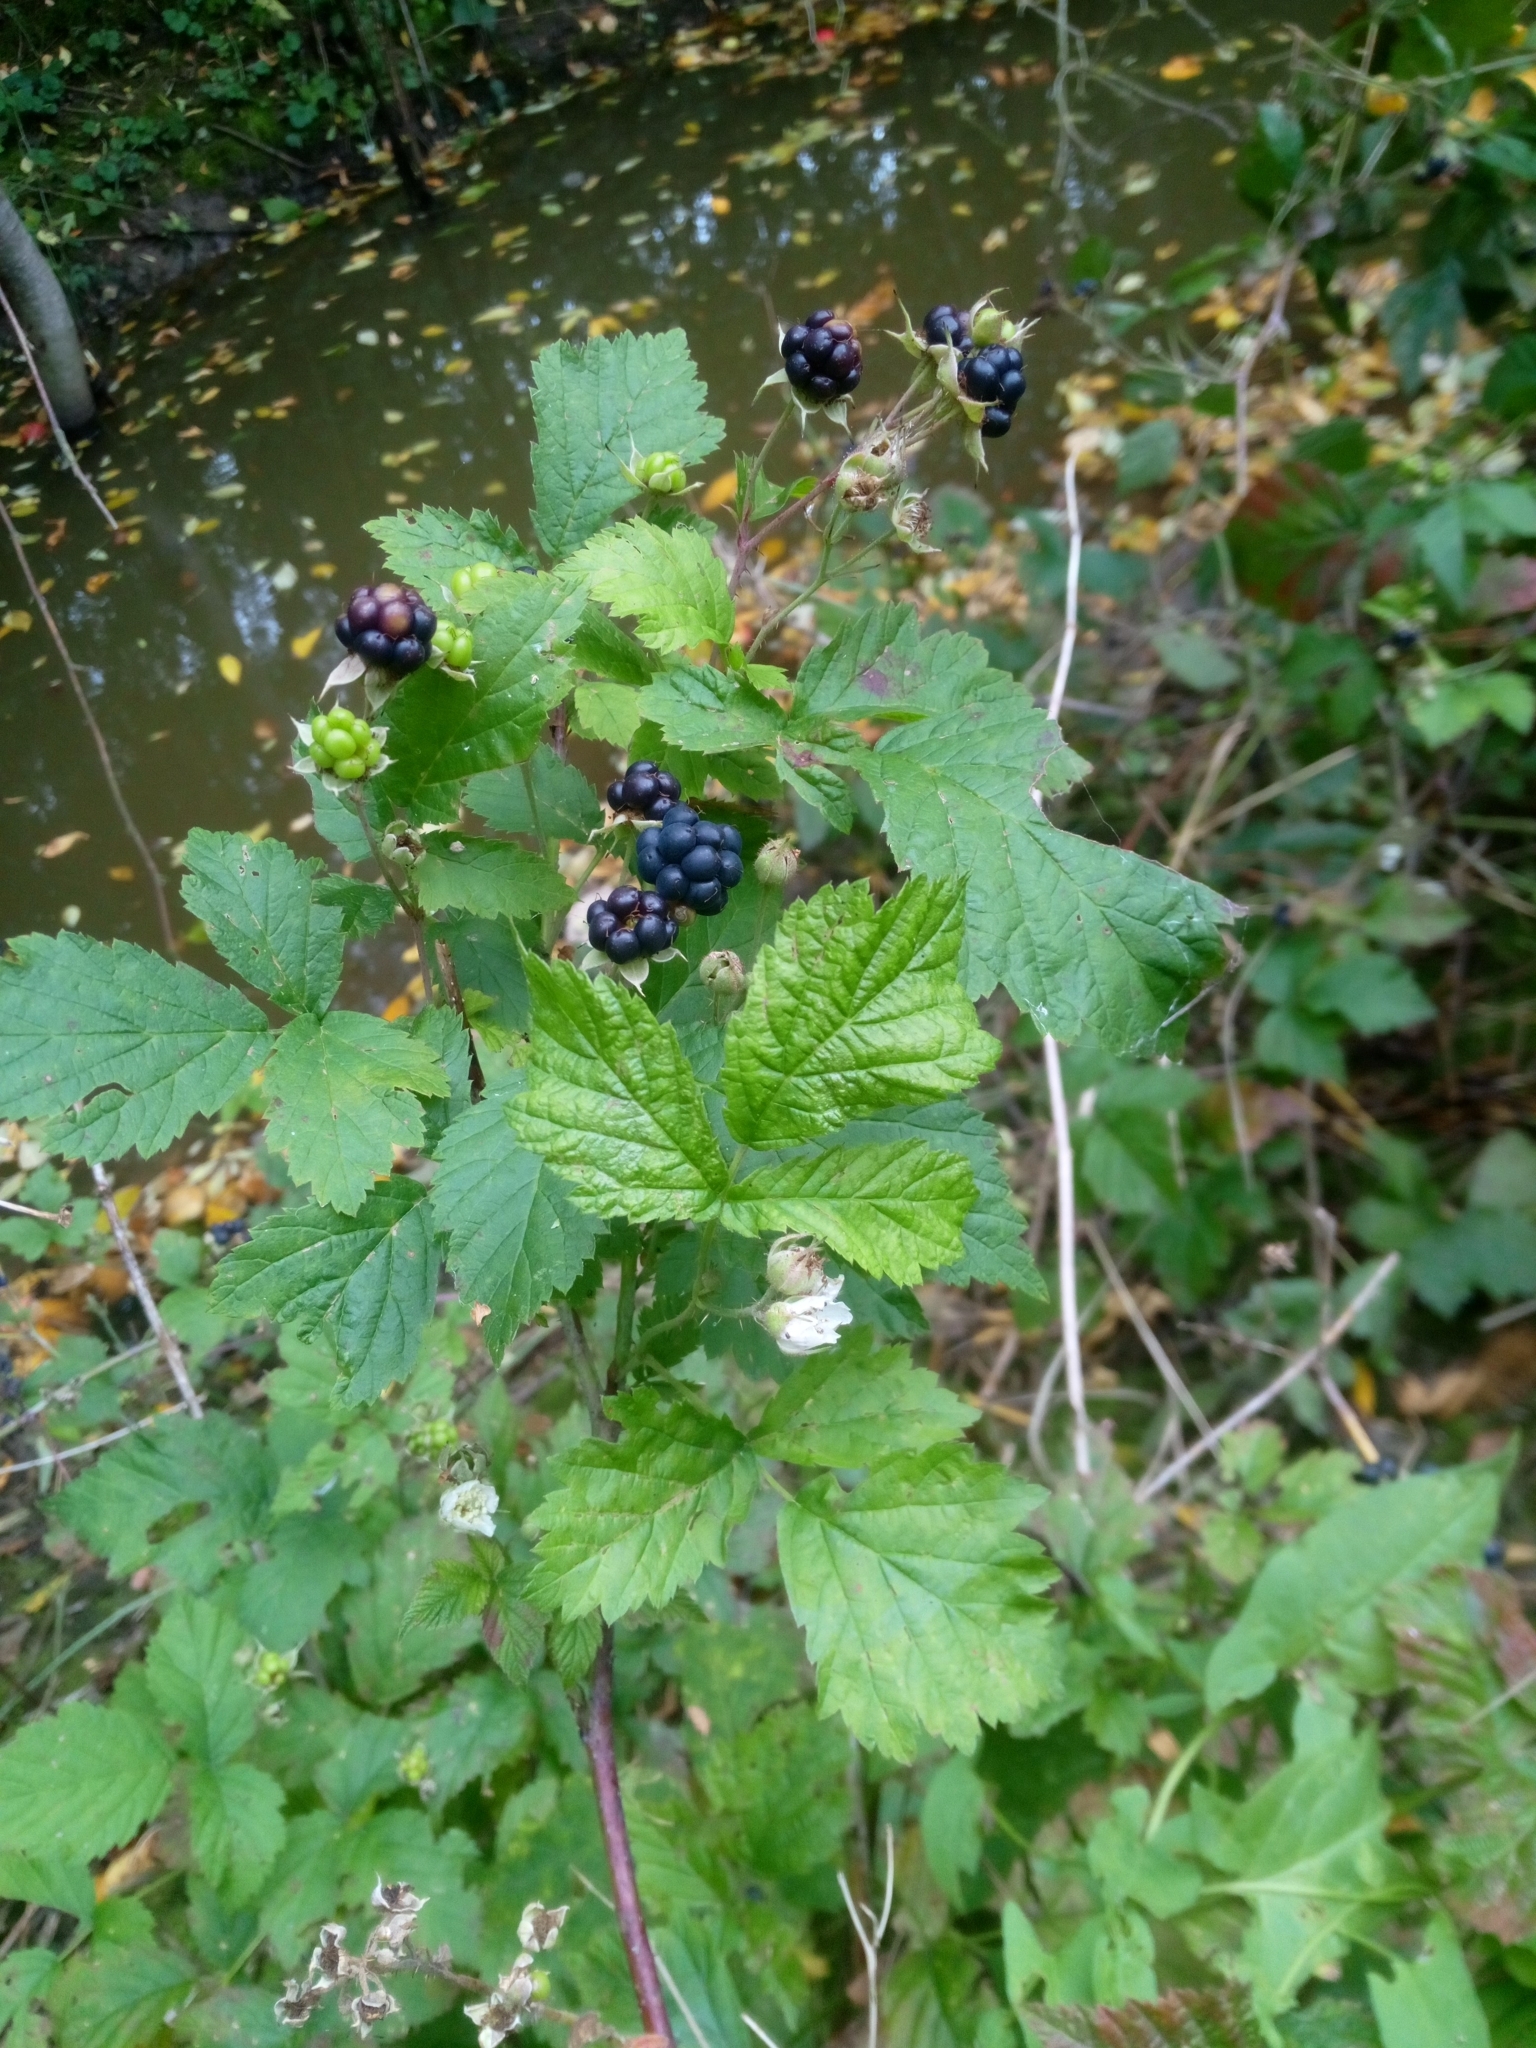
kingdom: Plantae
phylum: Tracheophyta
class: Magnoliopsida
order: Rosales
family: Rosaceae
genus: Rubus
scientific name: Rubus caesius
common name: Dewberry
